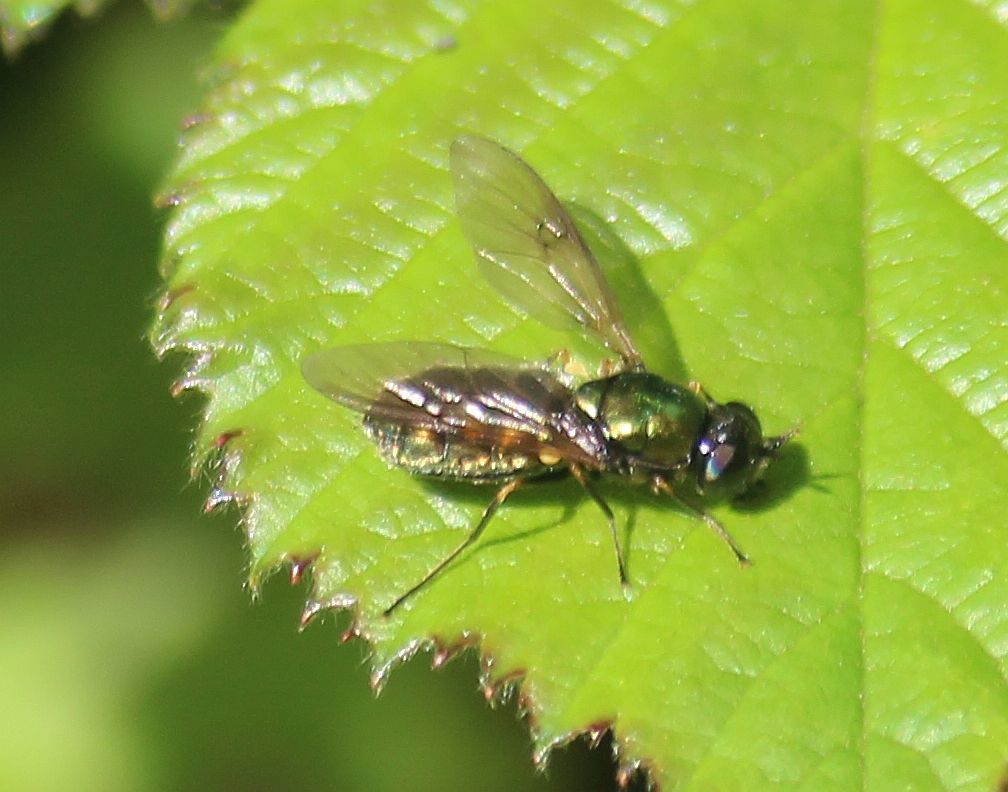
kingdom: Animalia
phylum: Arthropoda
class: Insecta
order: Diptera
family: Stratiomyidae
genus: Chloromyia
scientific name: Chloromyia formosa
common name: Soldier fly
